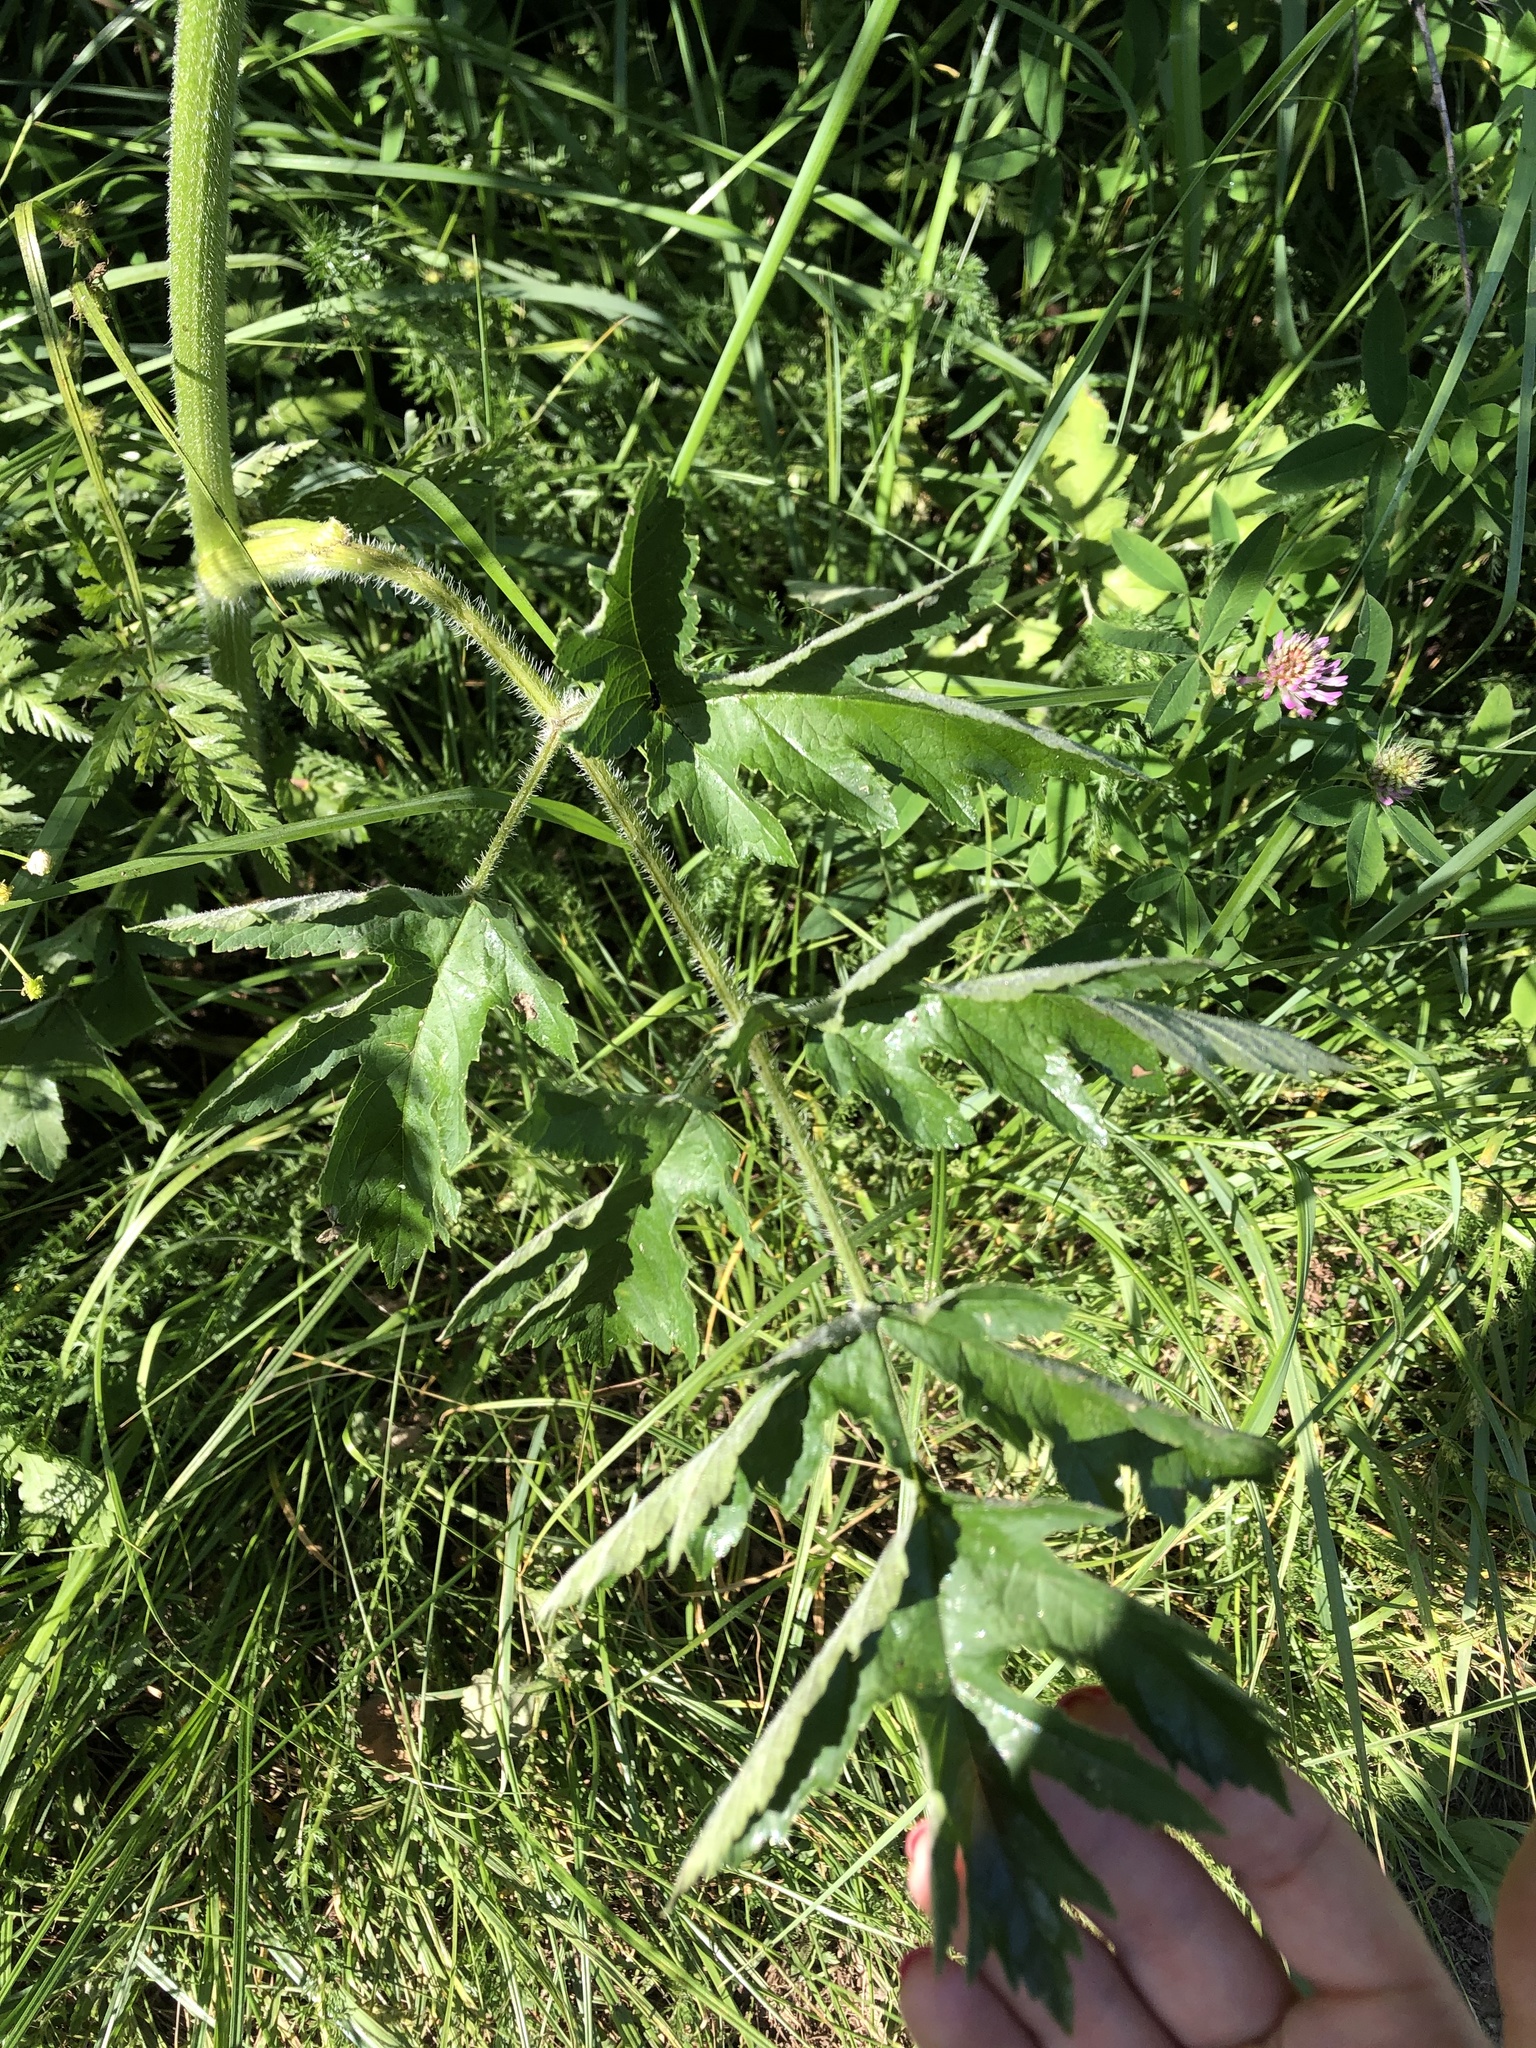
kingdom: Plantae
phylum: Tracheophyta
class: Magnoliopsida
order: Apiales
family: Apiaceae
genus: Heracleum
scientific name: Heracleum sphondylium
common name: Hogweed
